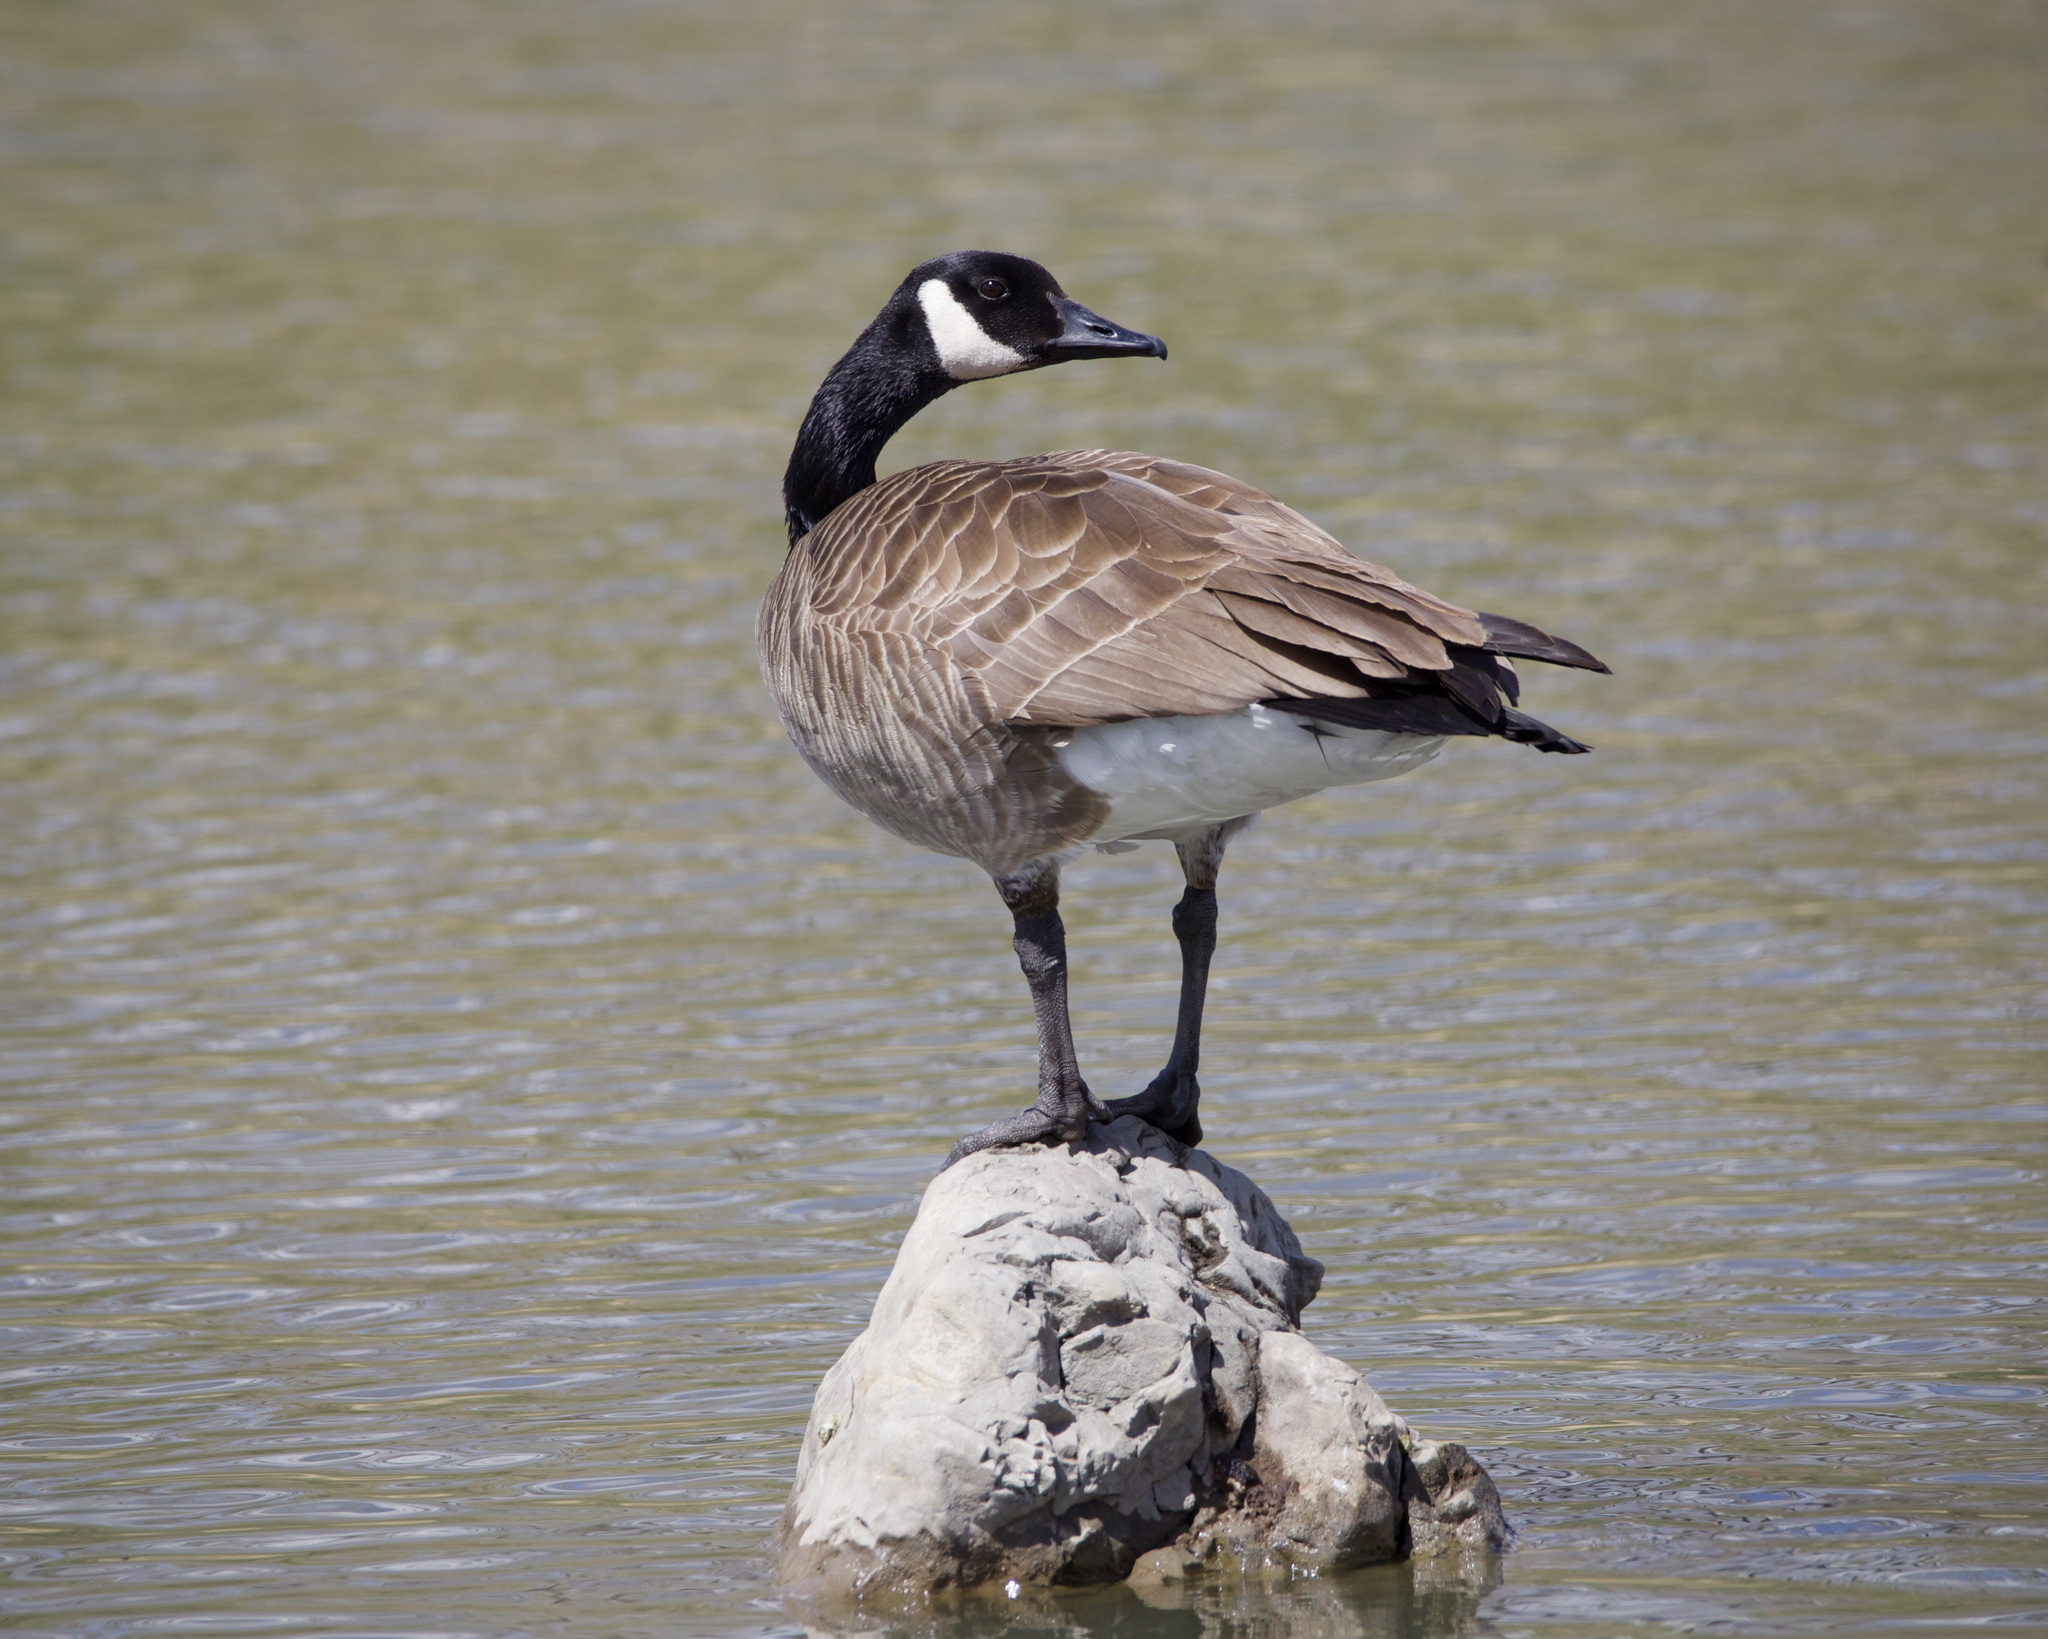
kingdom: Animalia
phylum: Chordata
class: Aves
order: Anseriformes
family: Anatidae
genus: Branta
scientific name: Branta canadensis
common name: Canada goose
